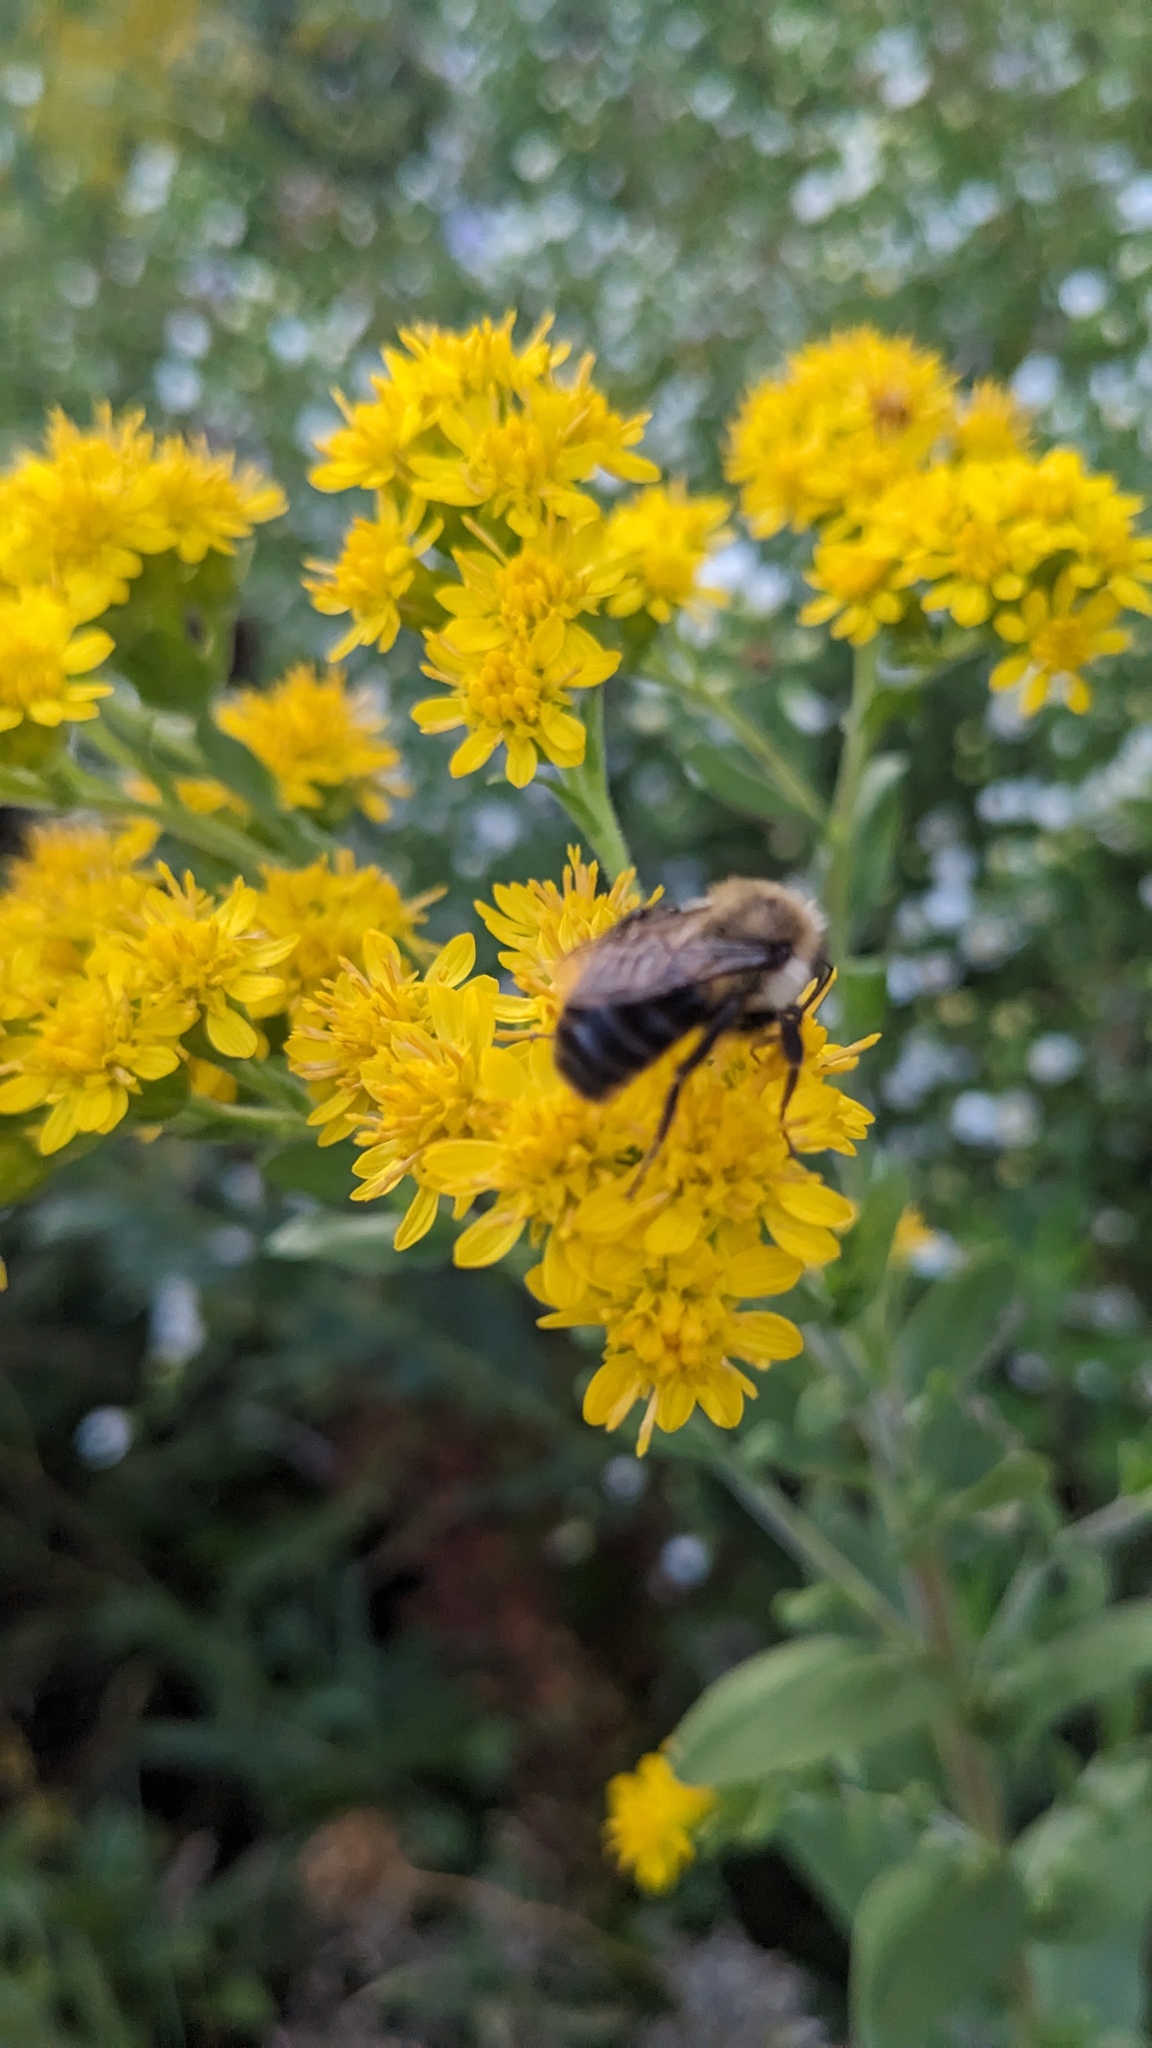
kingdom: Animalia
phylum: Arthropoda
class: Insecta
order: Hymenoptera
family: Apidae
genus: Bombus
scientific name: Bombus impatiens
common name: Common eastern bumble bee
